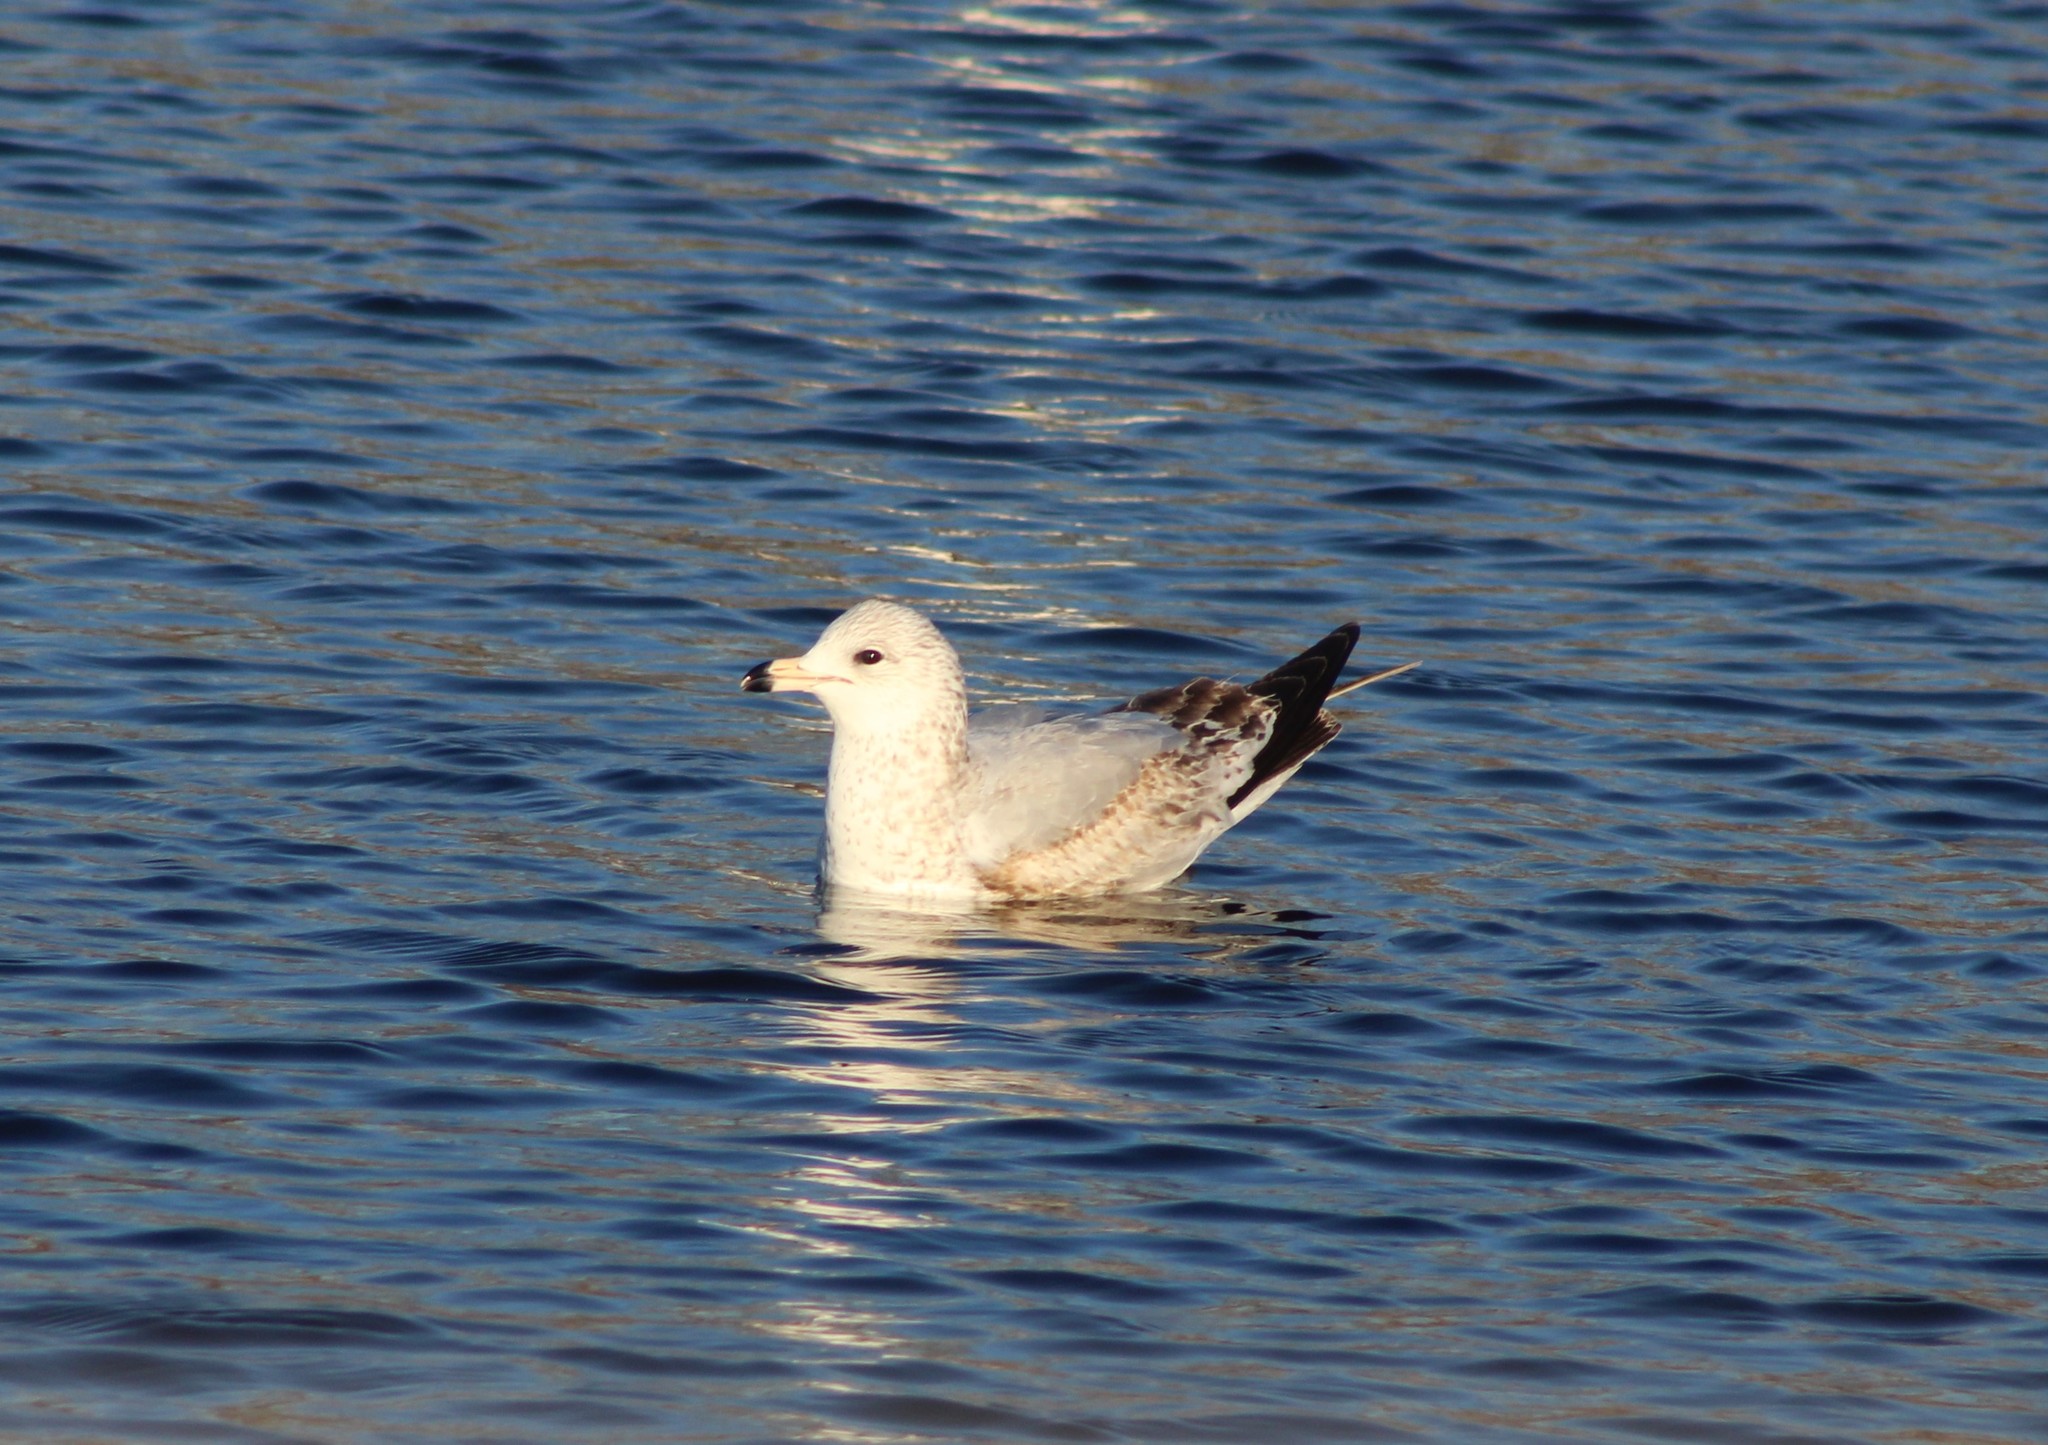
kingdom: Animalia
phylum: Chordata
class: Aves
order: Charadriiformes
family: Laridae
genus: Larus
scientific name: Larus delawarensis
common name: Ring-billed gull
